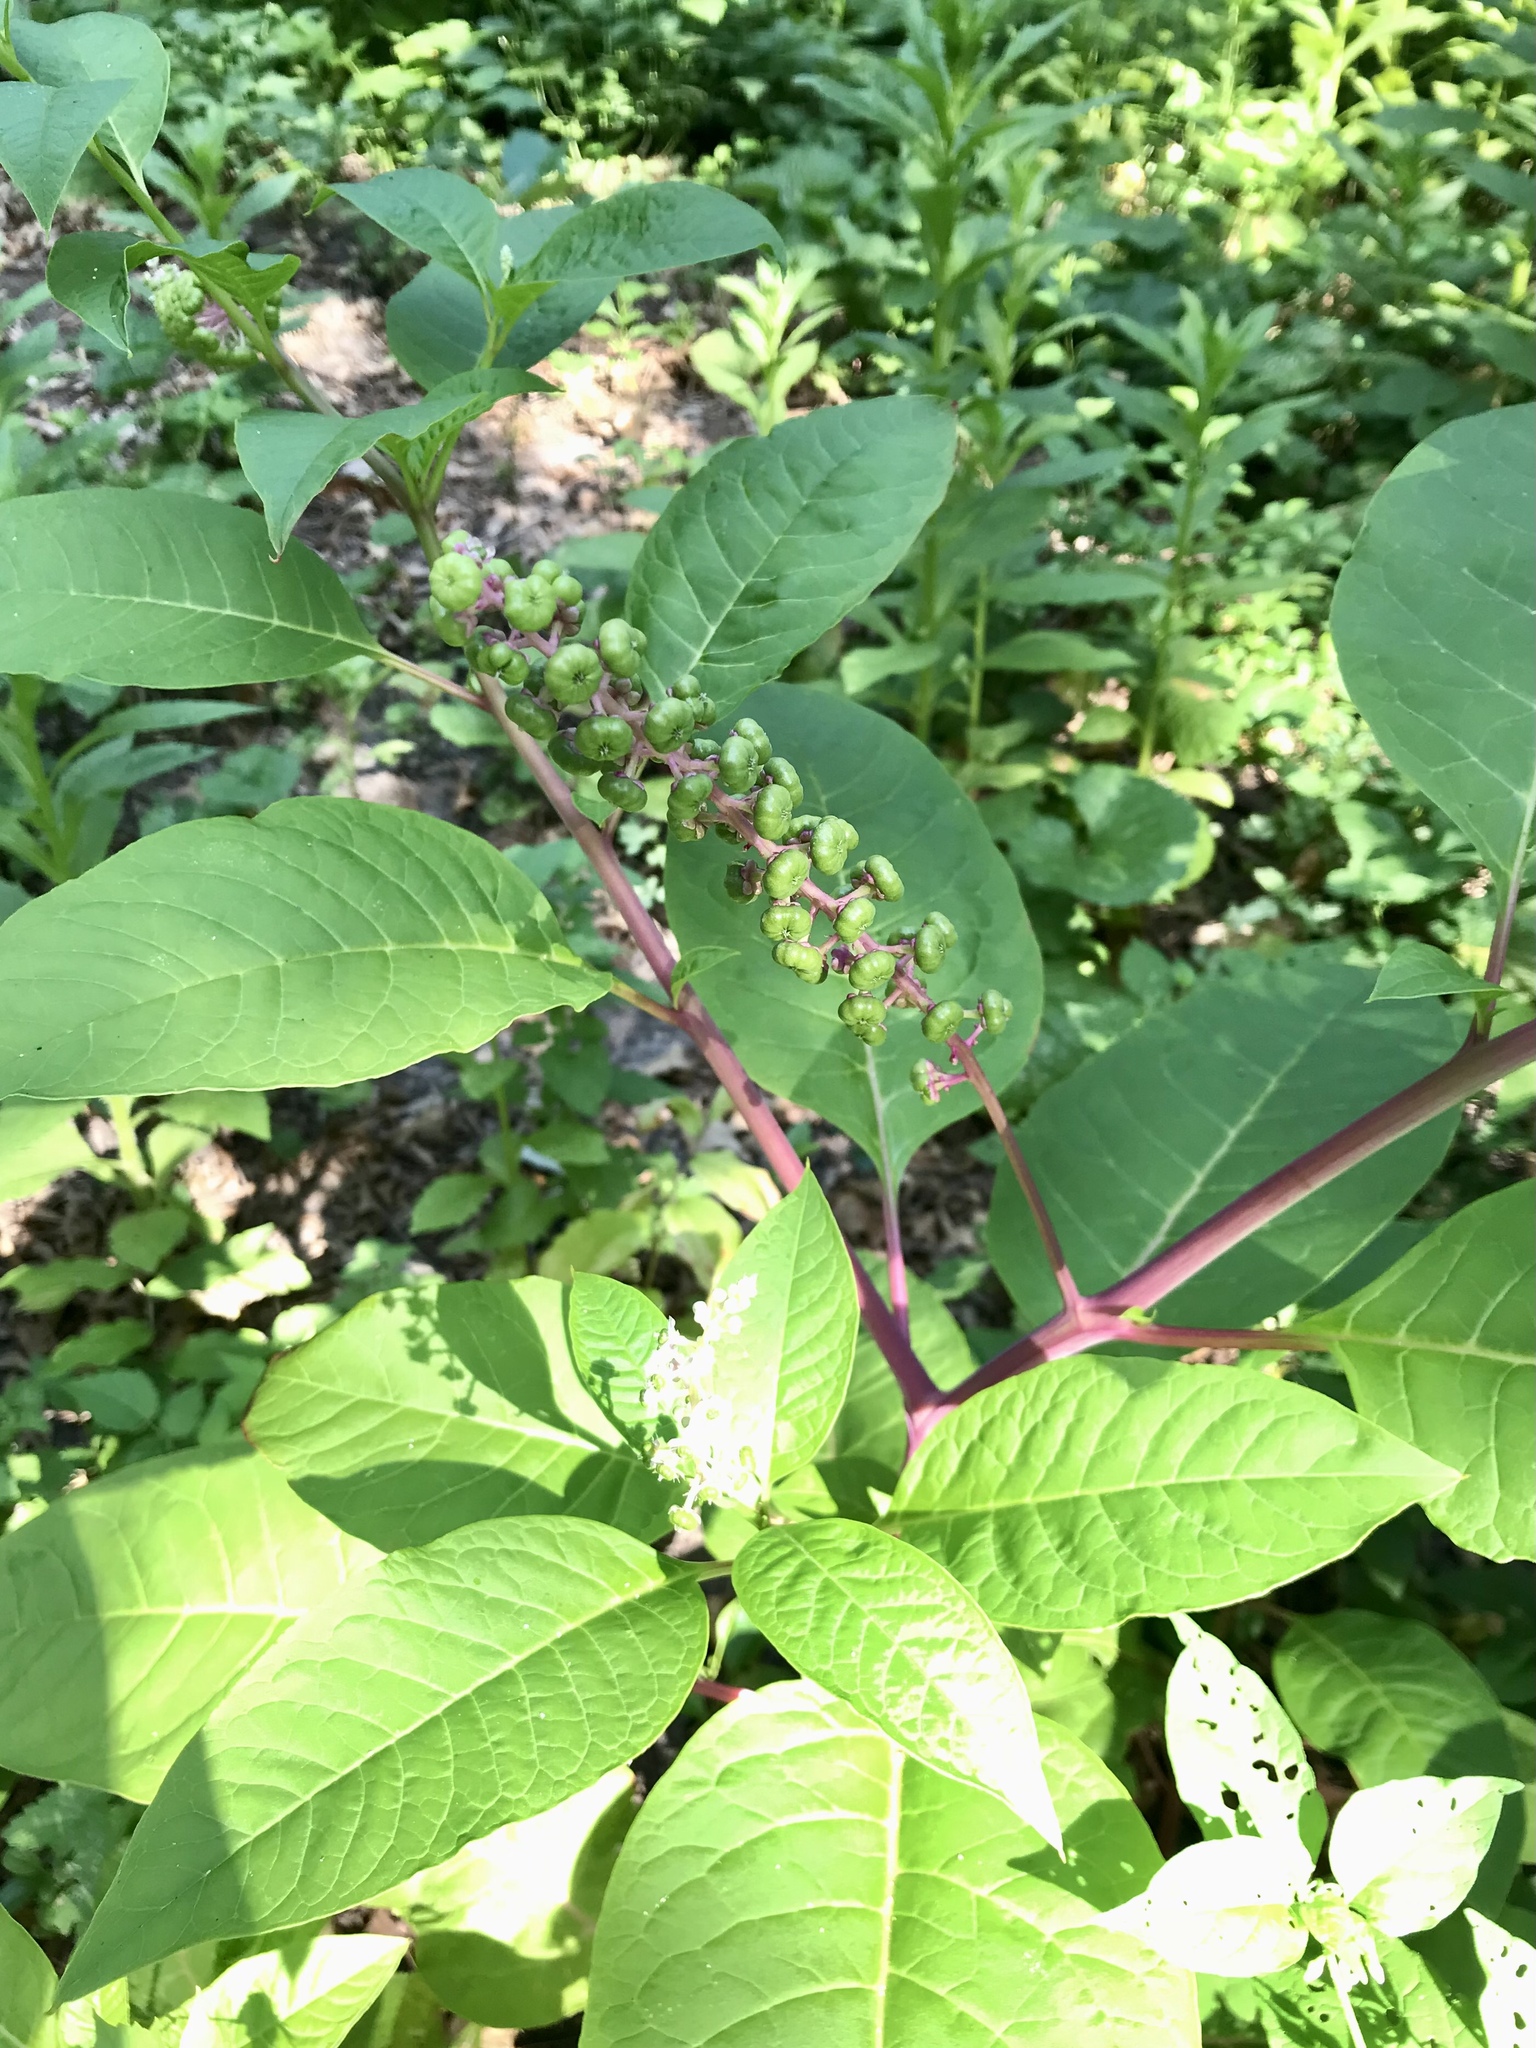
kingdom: Plantae
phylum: Tracheophyta
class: Magnoliopsida
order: Caryophyllales
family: Phytolaccaceae
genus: Phytolacca
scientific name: Phytolacca americana
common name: American pokeweed
